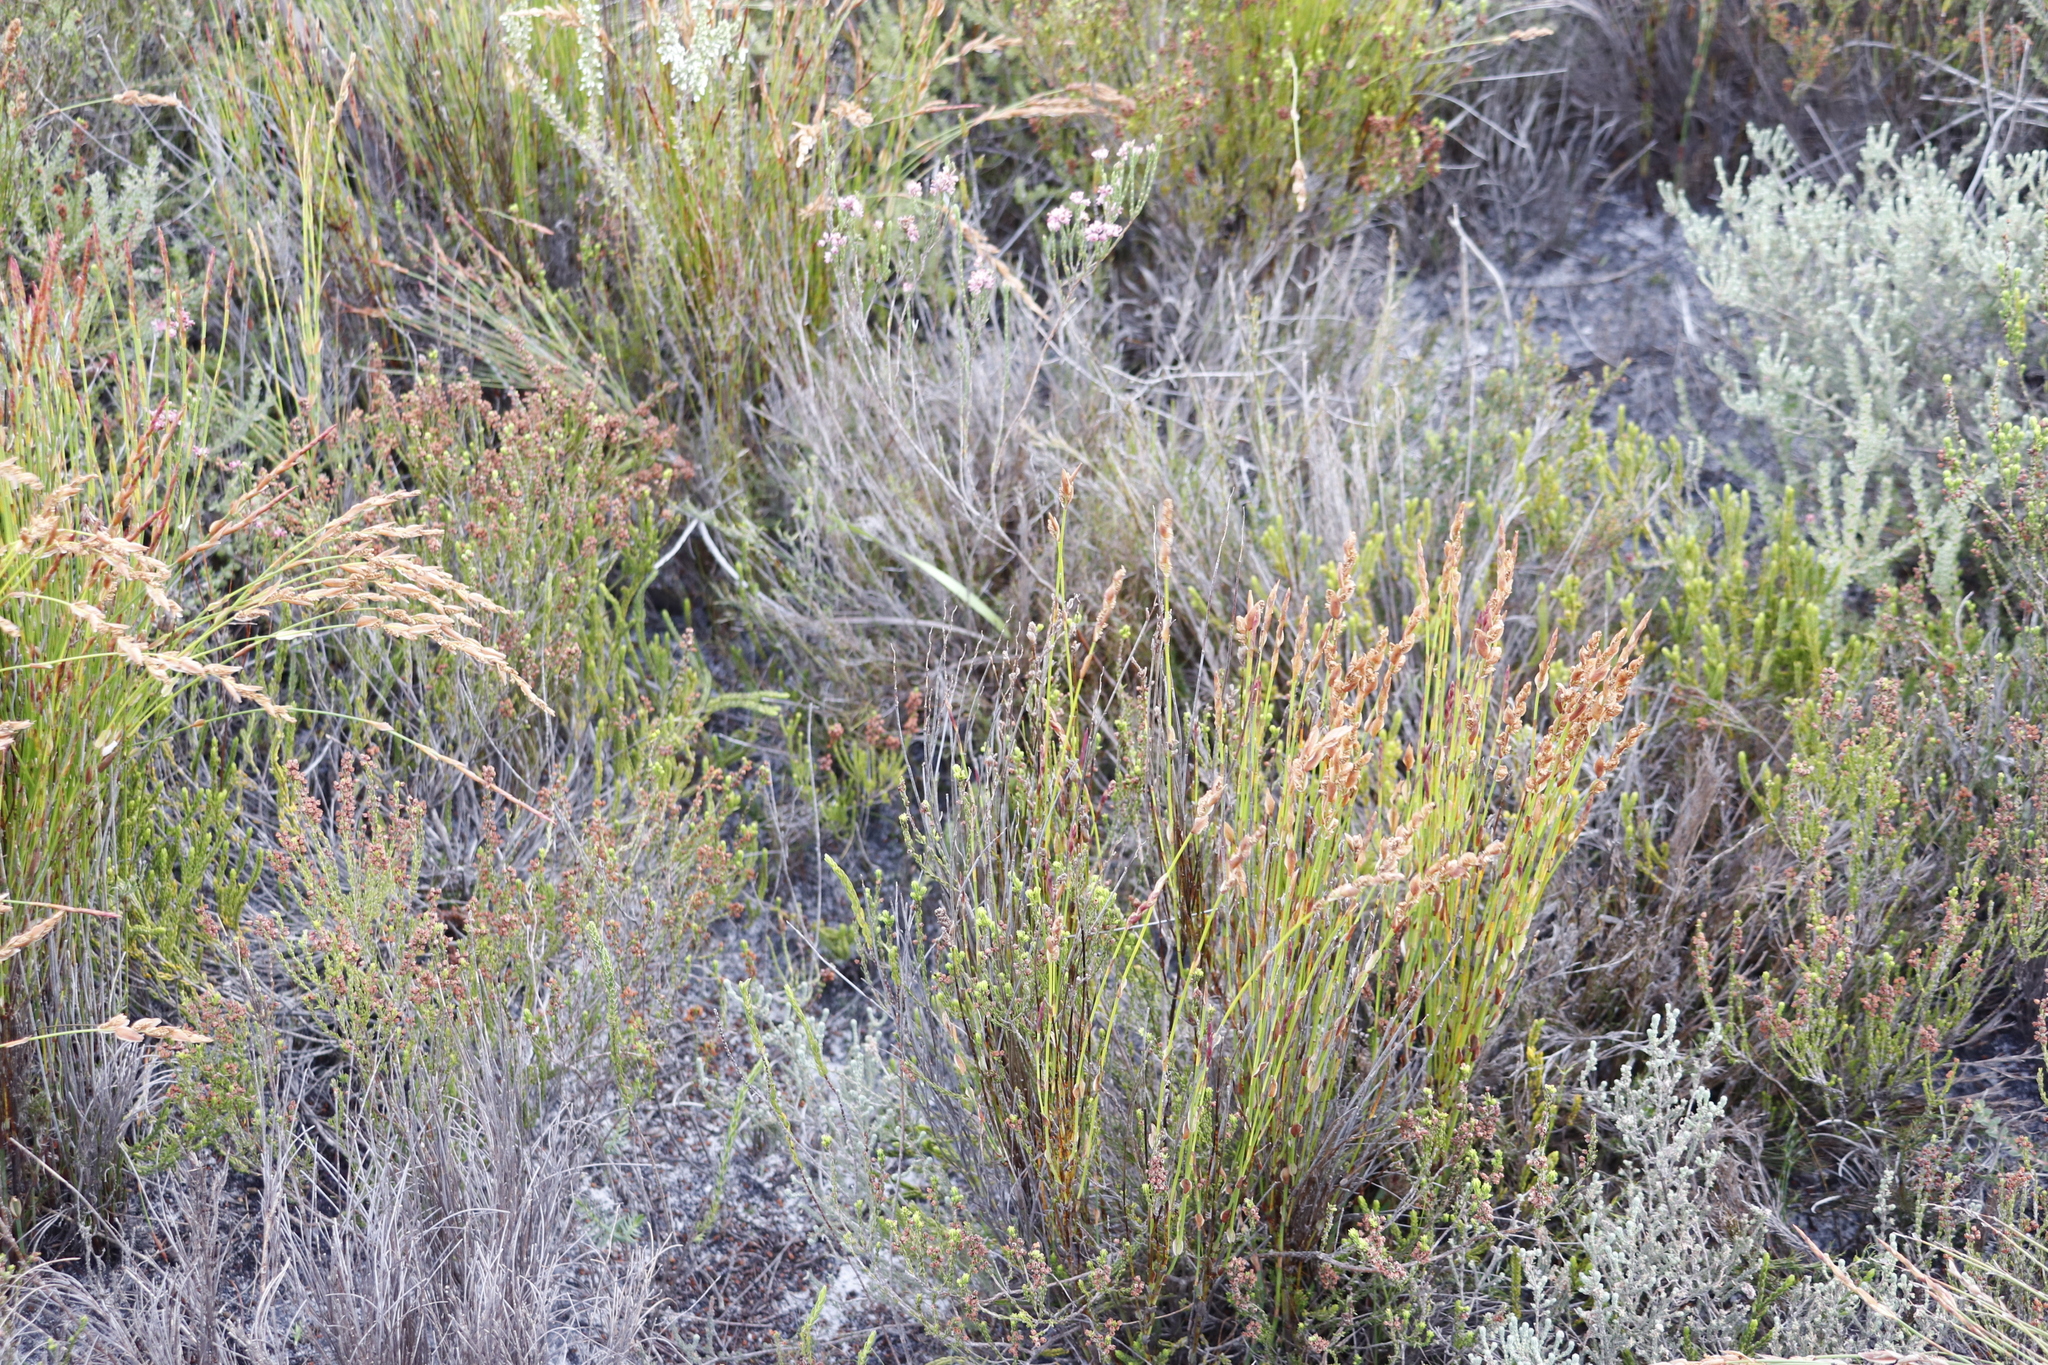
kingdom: Plantae
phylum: Tracheophyta
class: Liliopsida
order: Poales
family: Restionaceae
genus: Elegia
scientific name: Elegia stipularis
